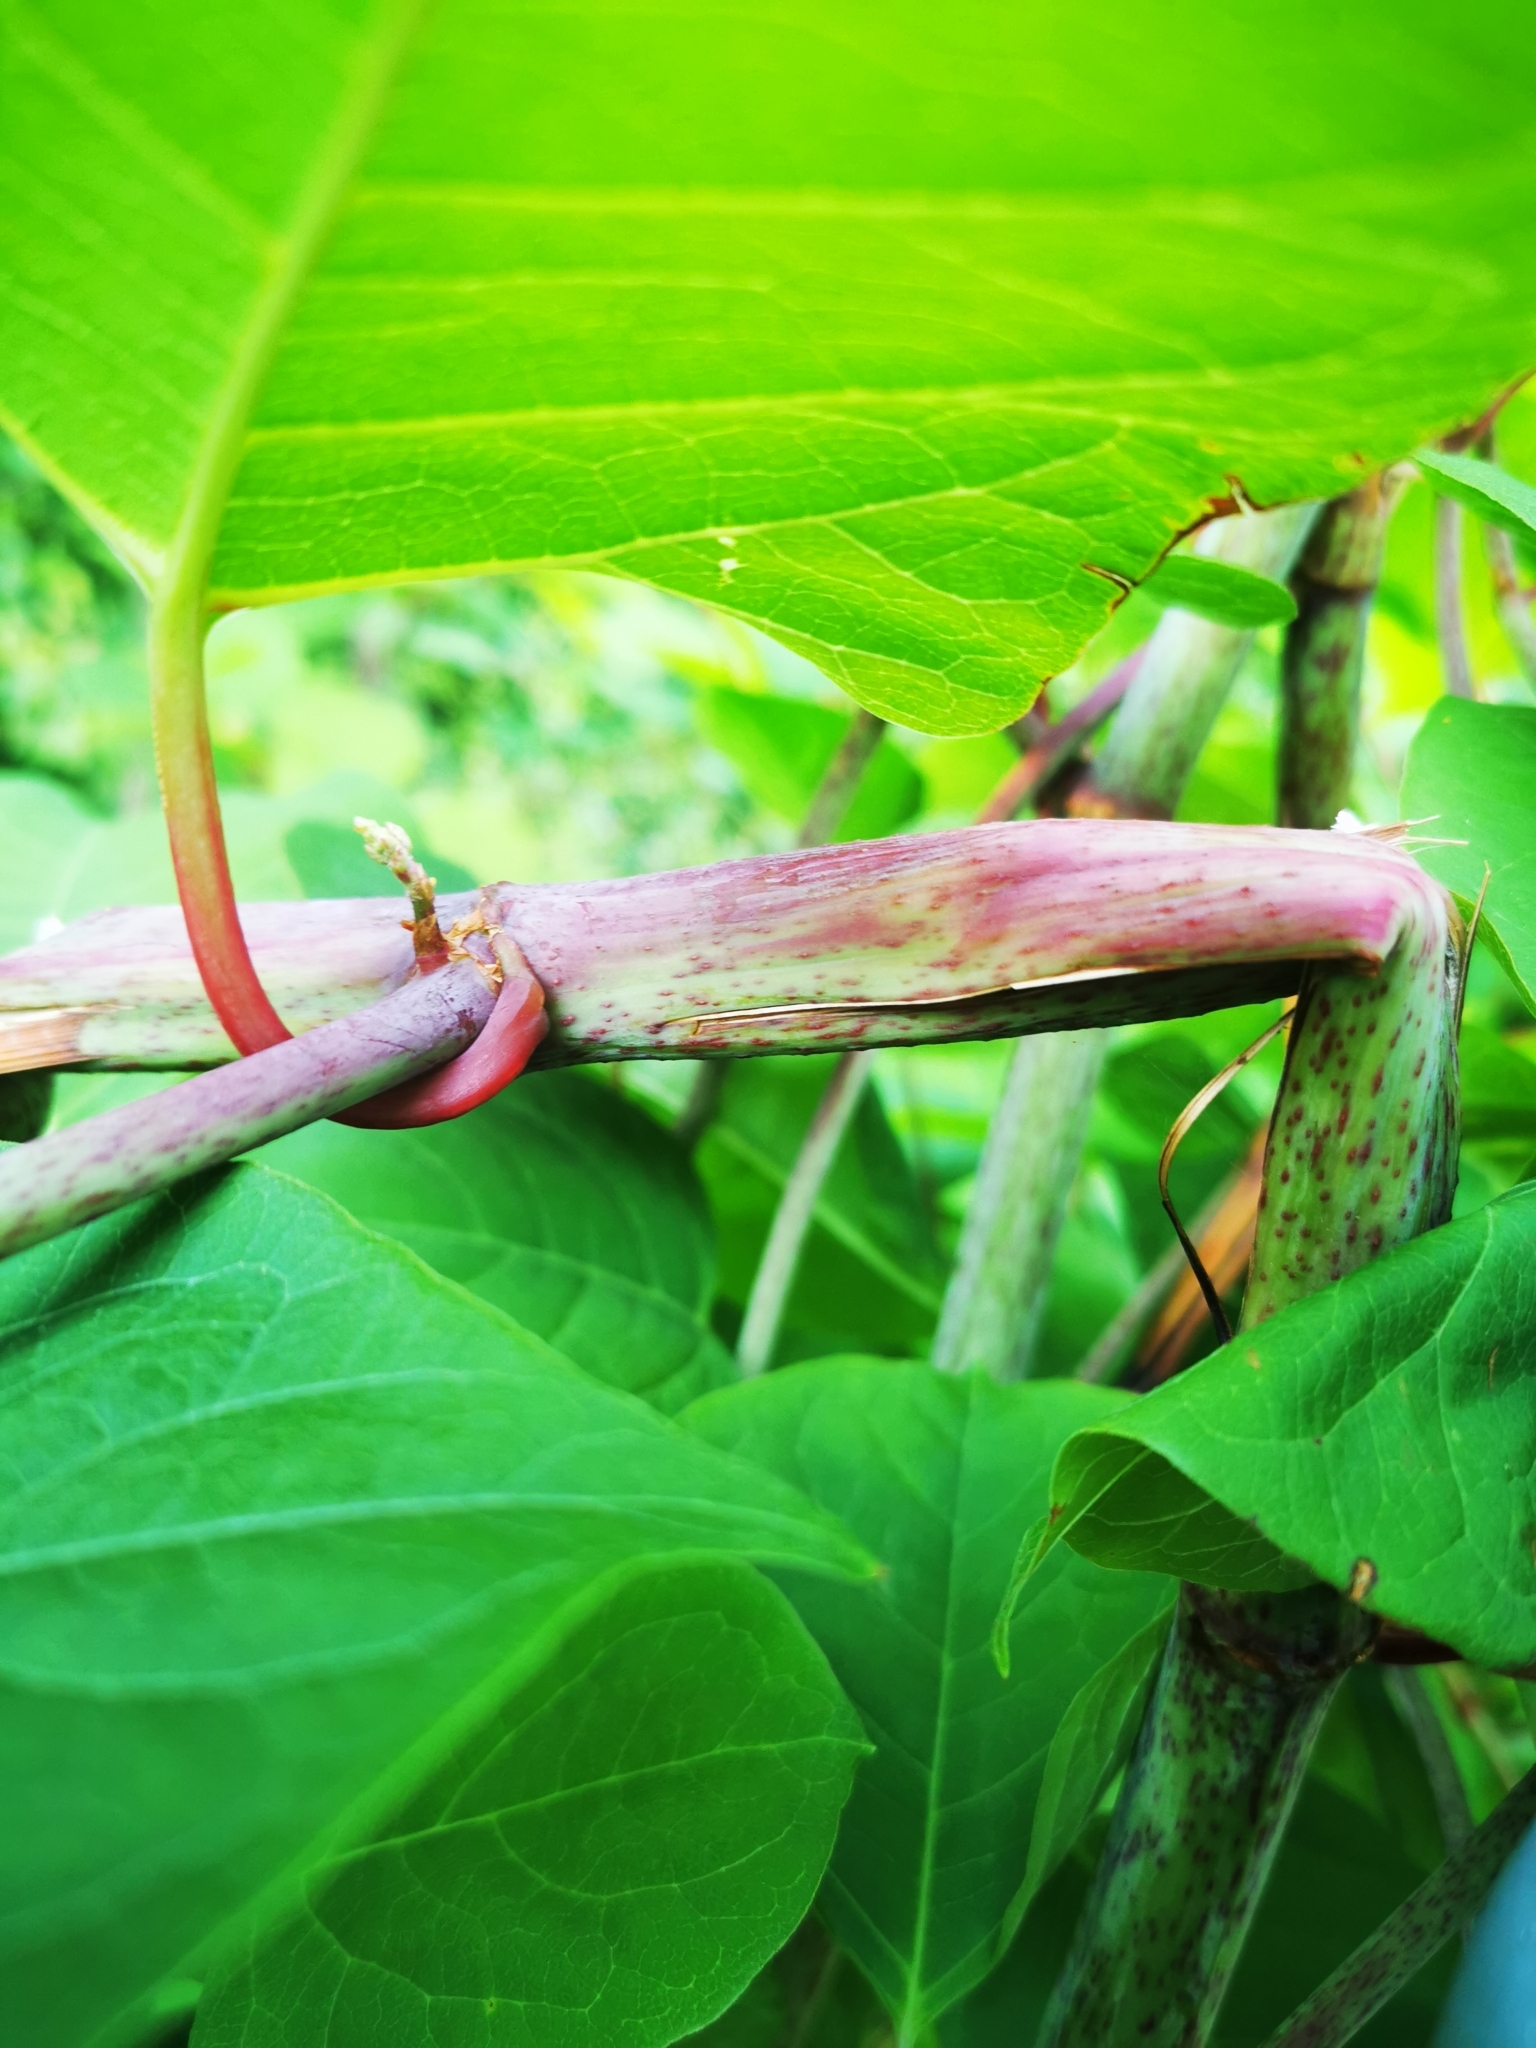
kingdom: Plantae
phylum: Tracheophyta
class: Magnoliopsida
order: Caryophyllales
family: Polygonaceae
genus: Reynoutria
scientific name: Reynoutria japonica
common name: Japanese knotweed
